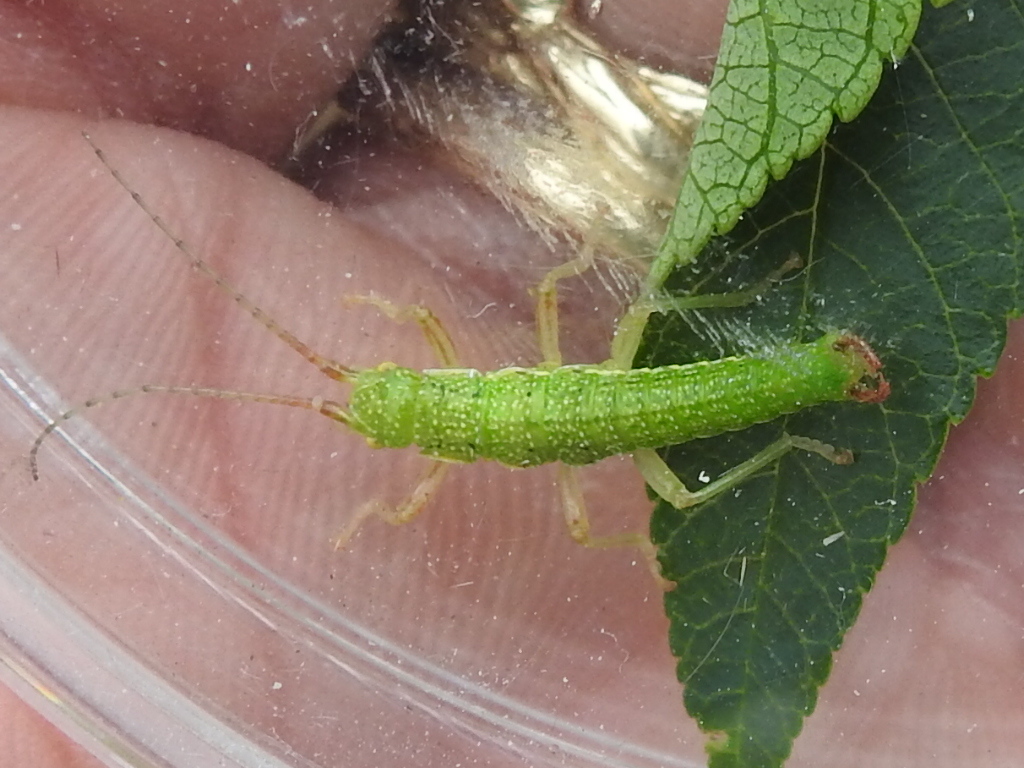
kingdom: Animalia
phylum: Arthropoda
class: Insecta
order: Phasmida
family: Timematidae
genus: Timema
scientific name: Timema californicum
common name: California timema
